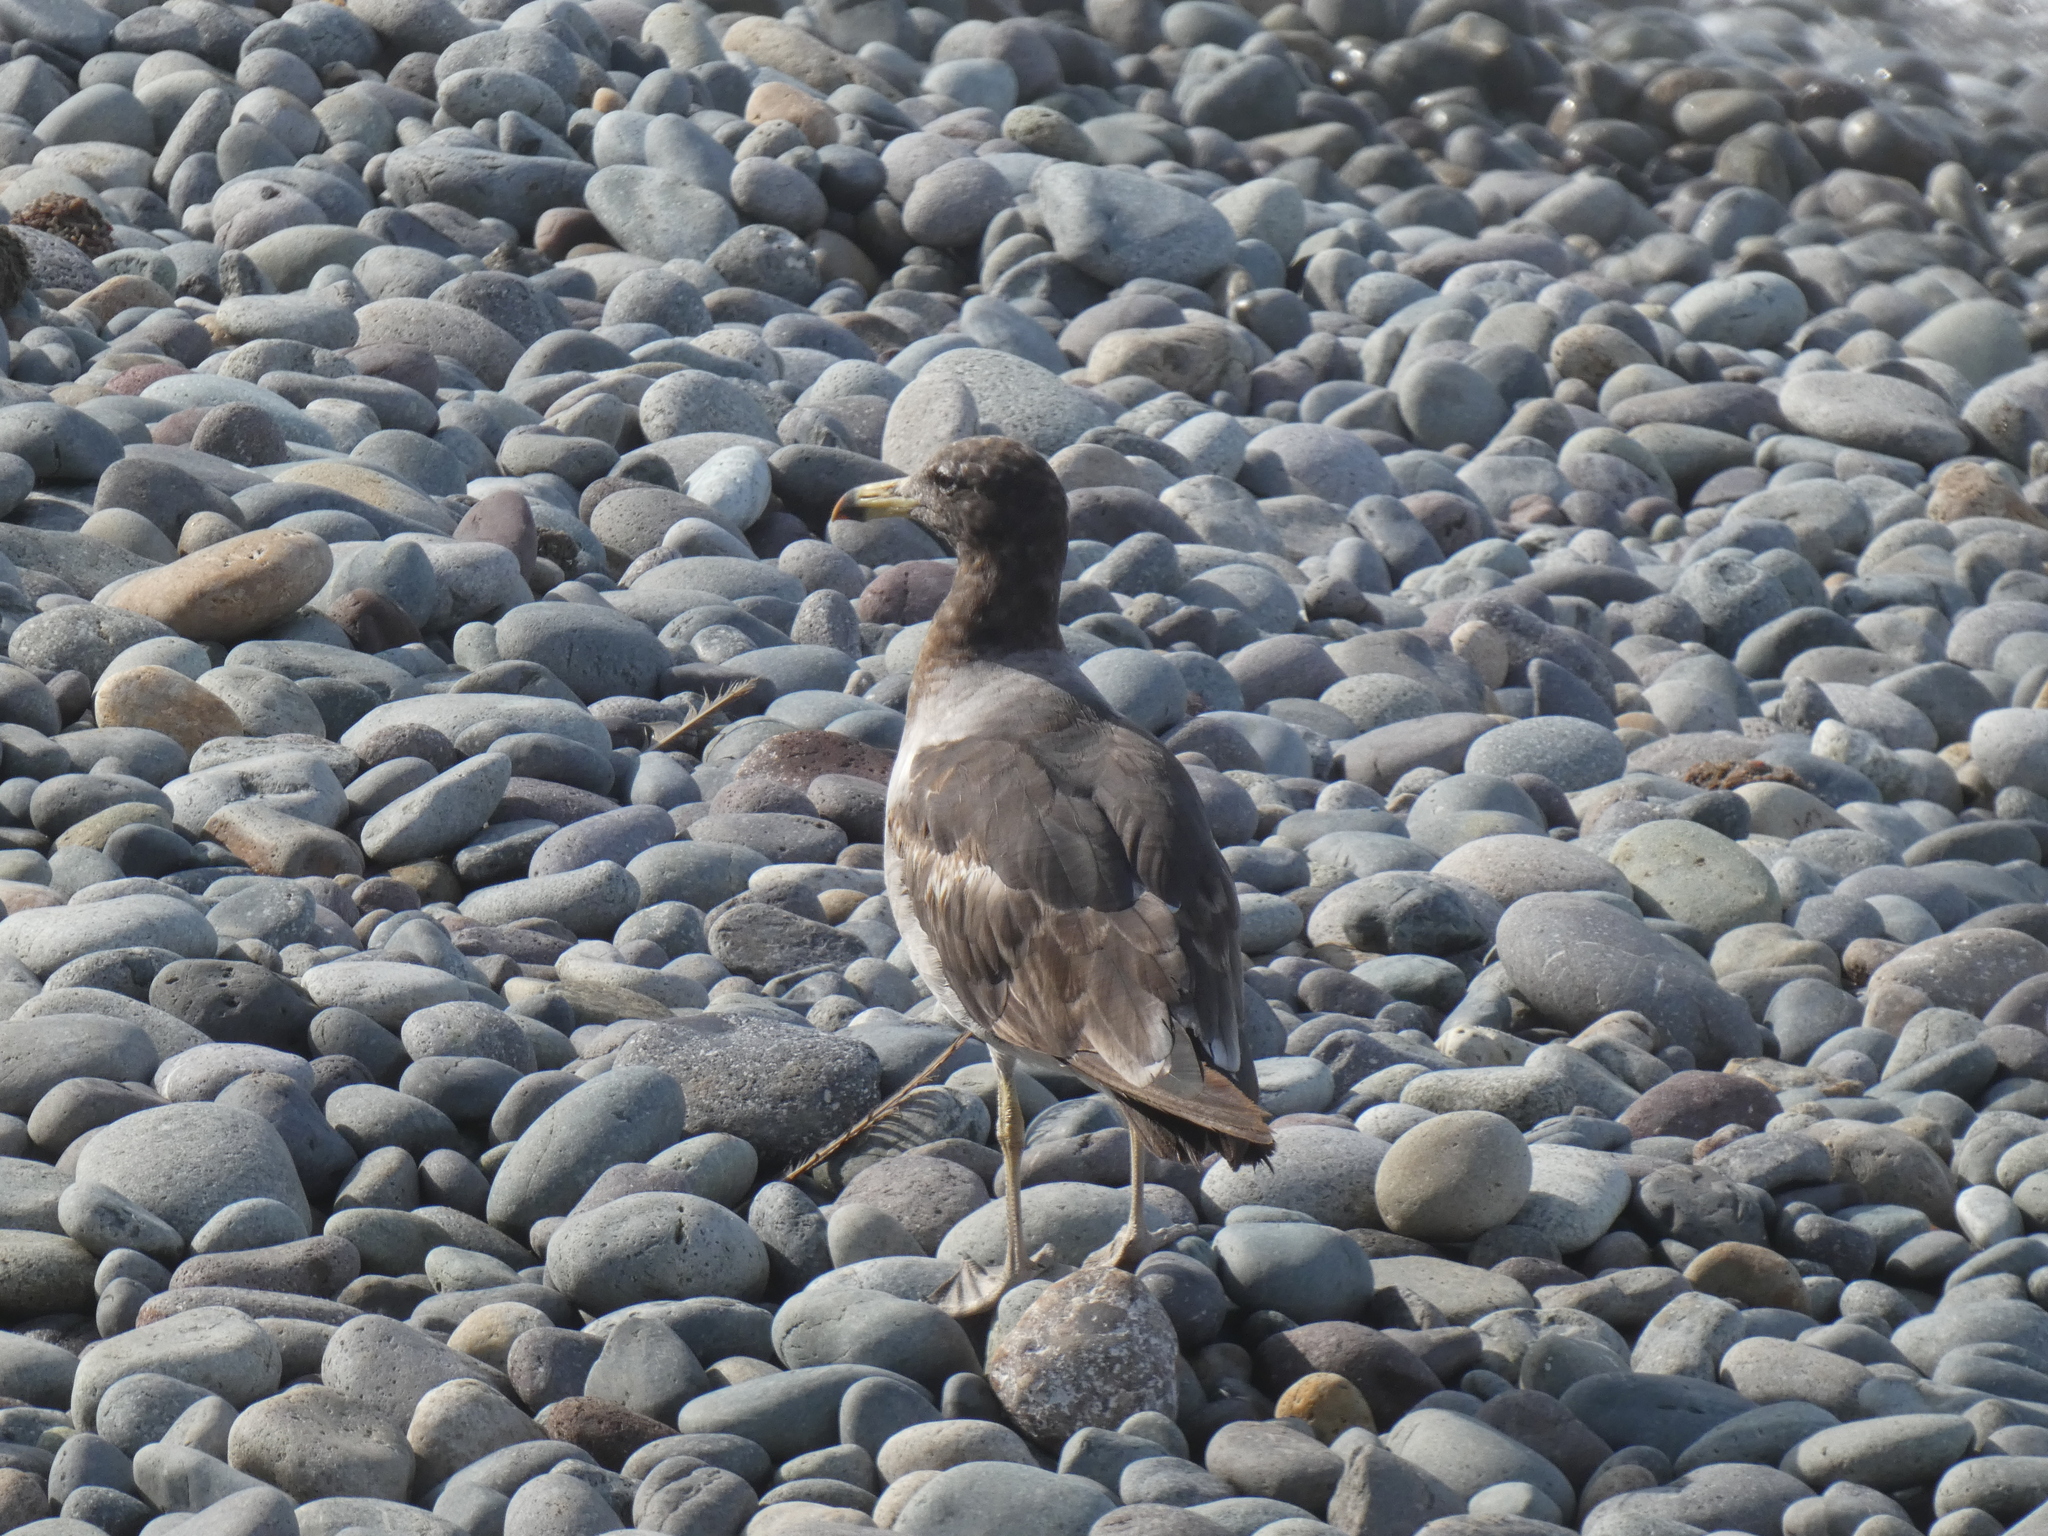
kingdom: Animalia
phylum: Chordata
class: Aves
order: Charadriiformes
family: Laridae
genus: Larus
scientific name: Larus belcheri
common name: Belcher's gull
